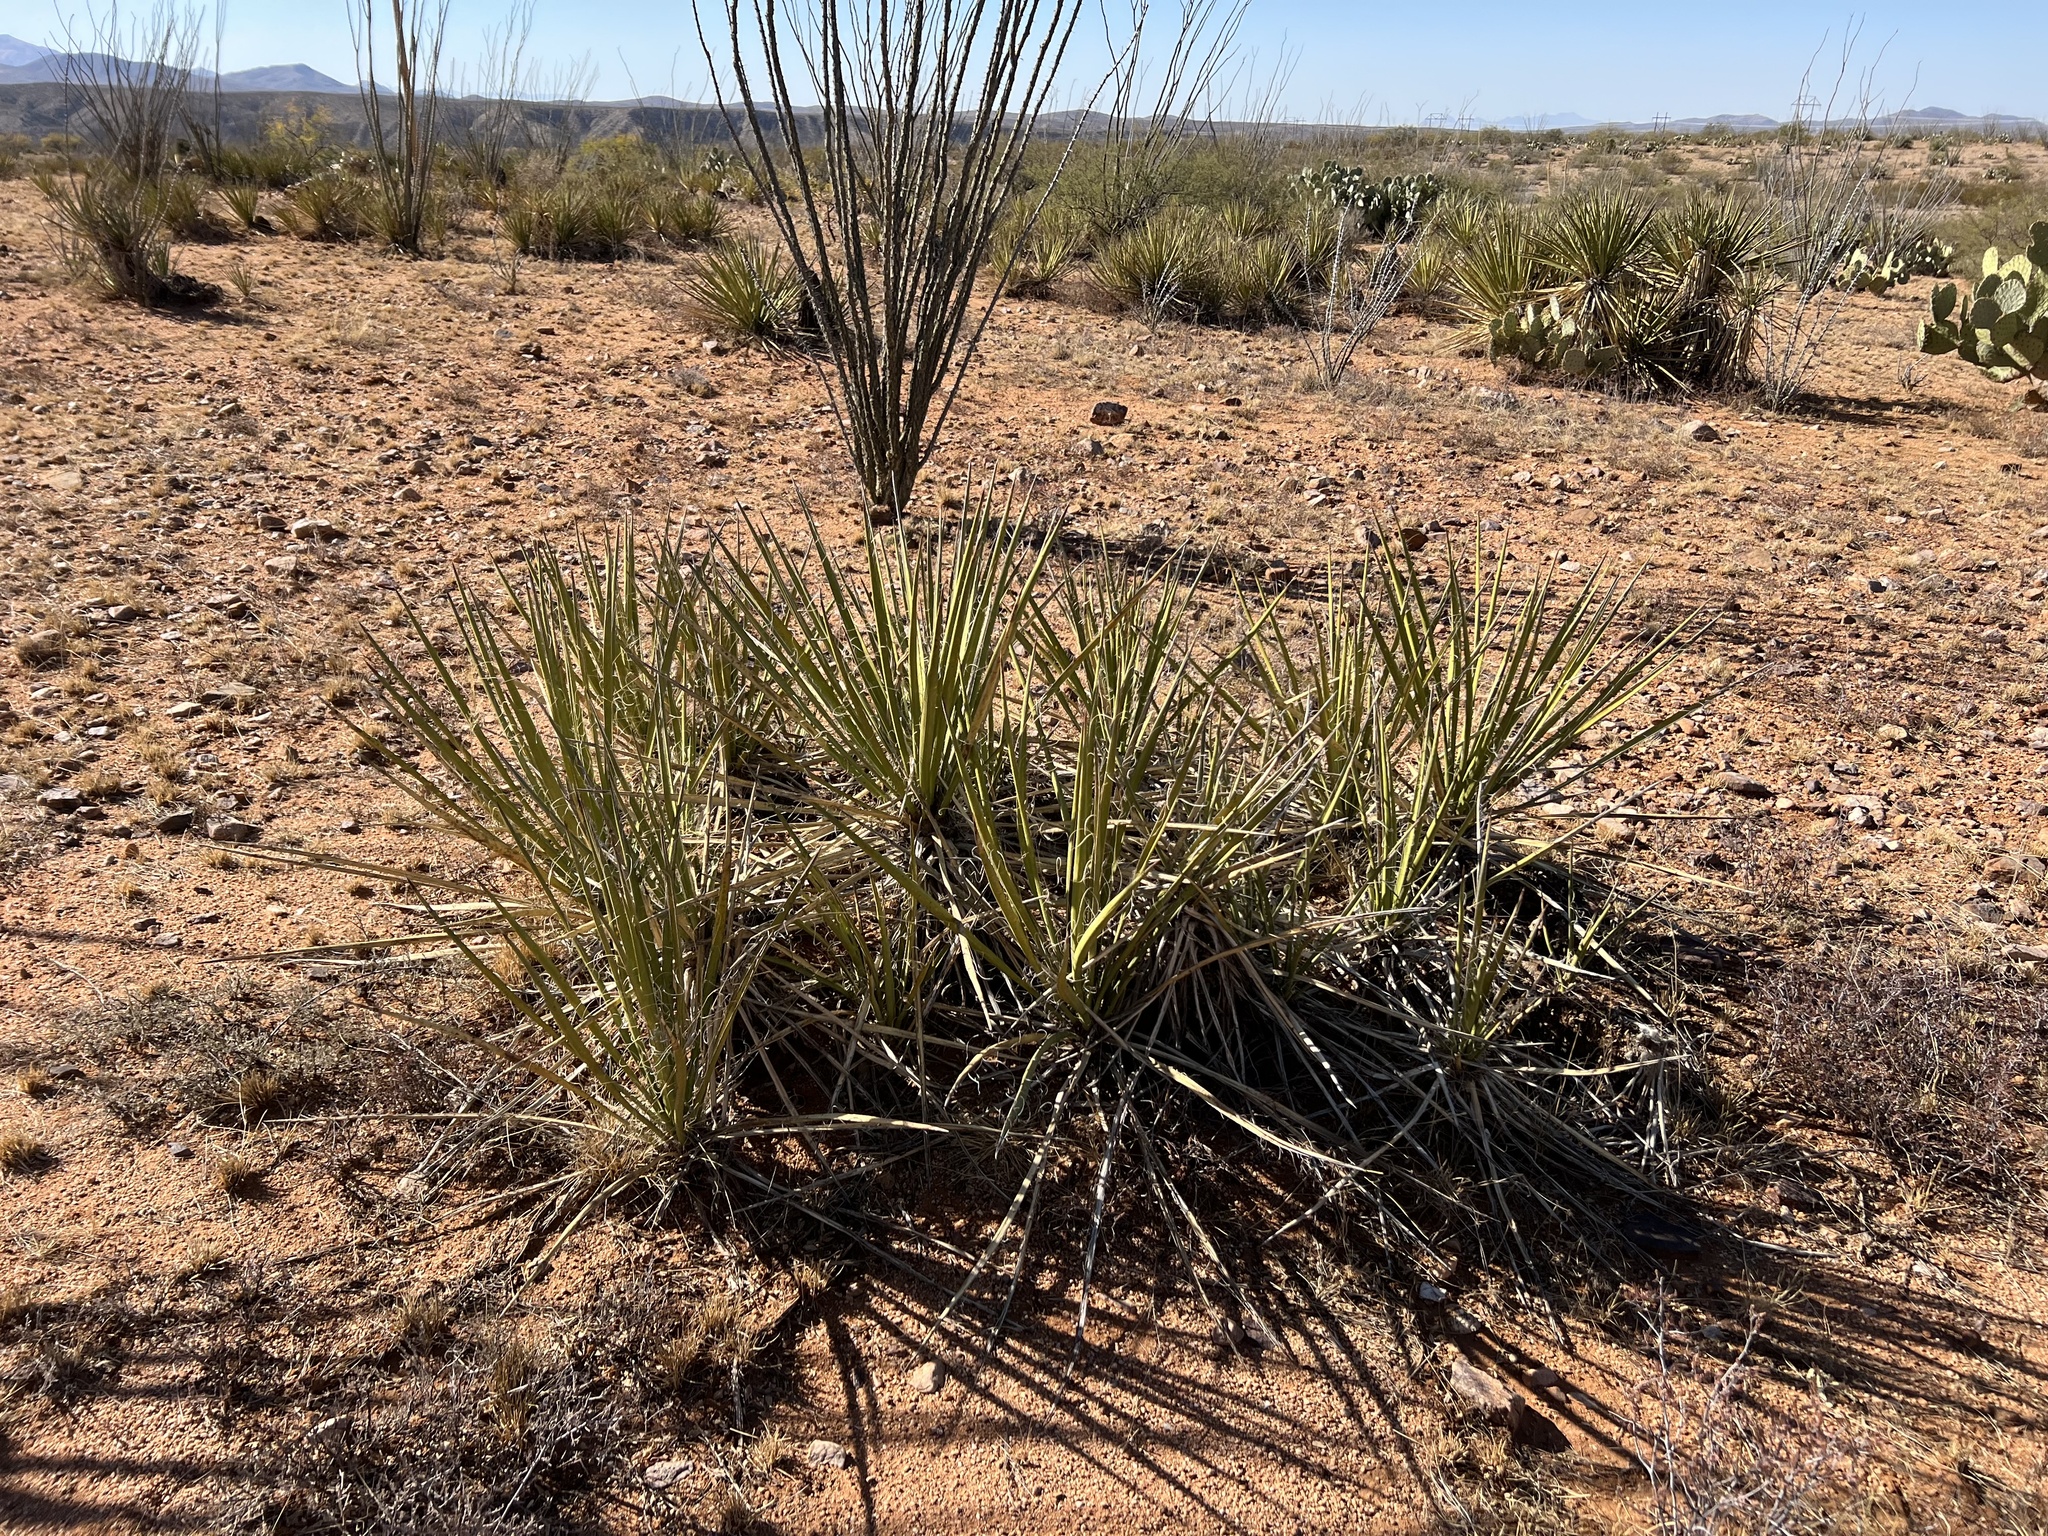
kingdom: Plantae
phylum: Tracheophyta
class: Liliopsida
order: Asparagales
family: Asparagaceae
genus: Yucca
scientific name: Yucca baccata
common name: Banana yucca
